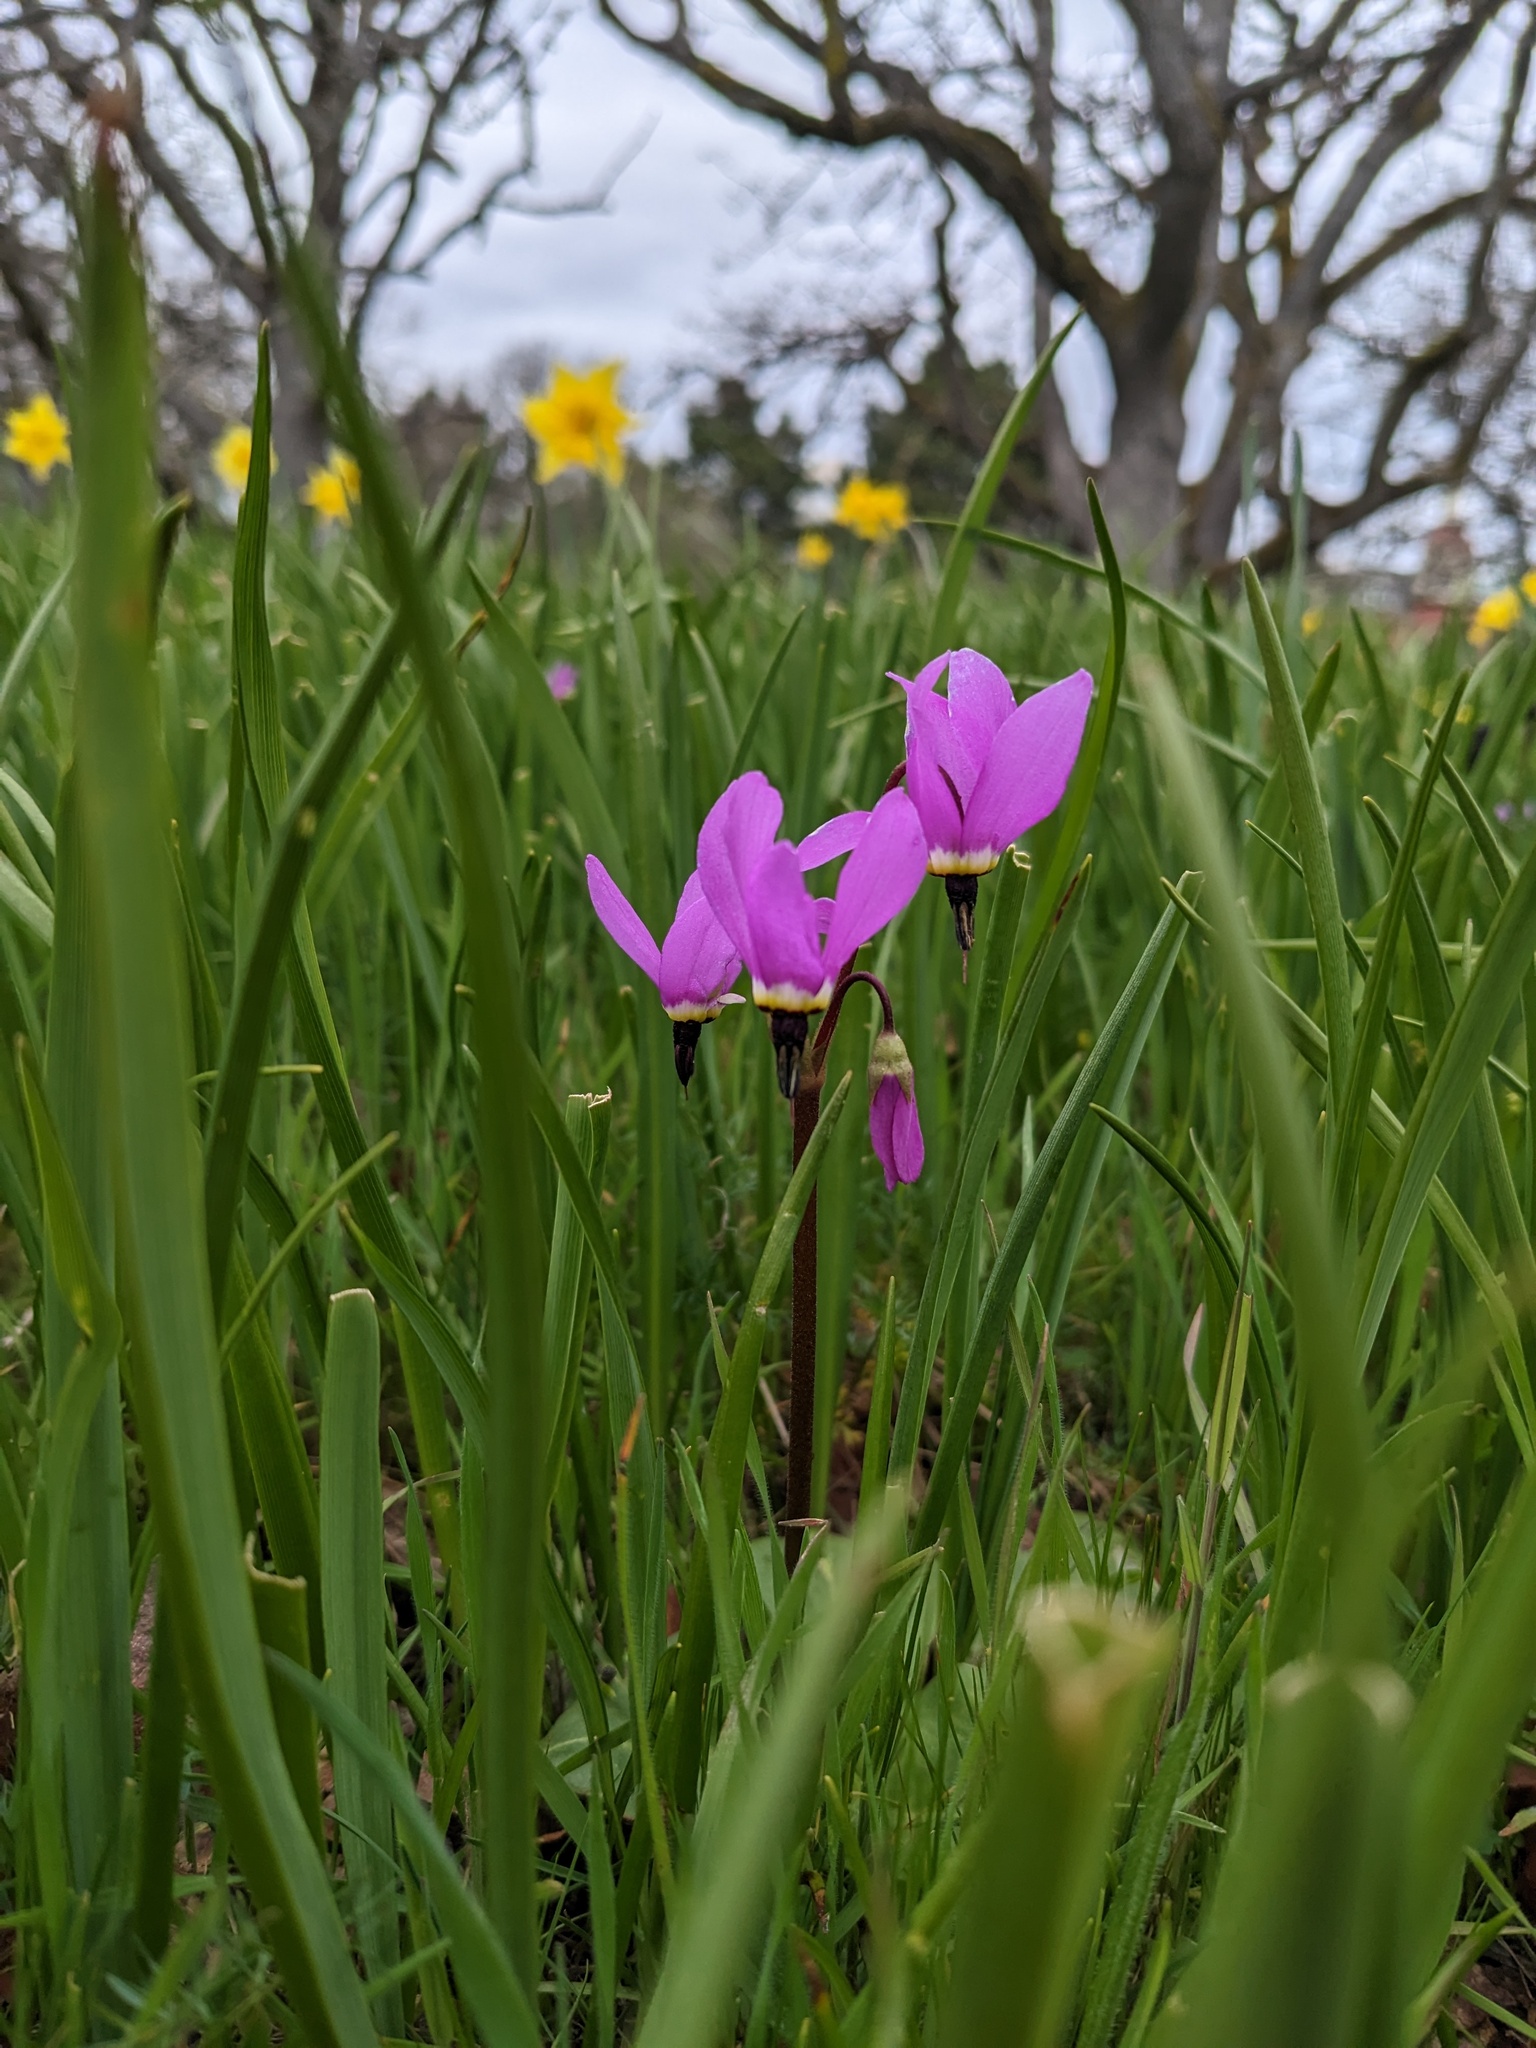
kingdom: Plantae
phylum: Tracheophyta
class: Magnoliopsida
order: Ericales
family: Primulaceae
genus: Dodecatheon
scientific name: Dodecatheon hendersonii
